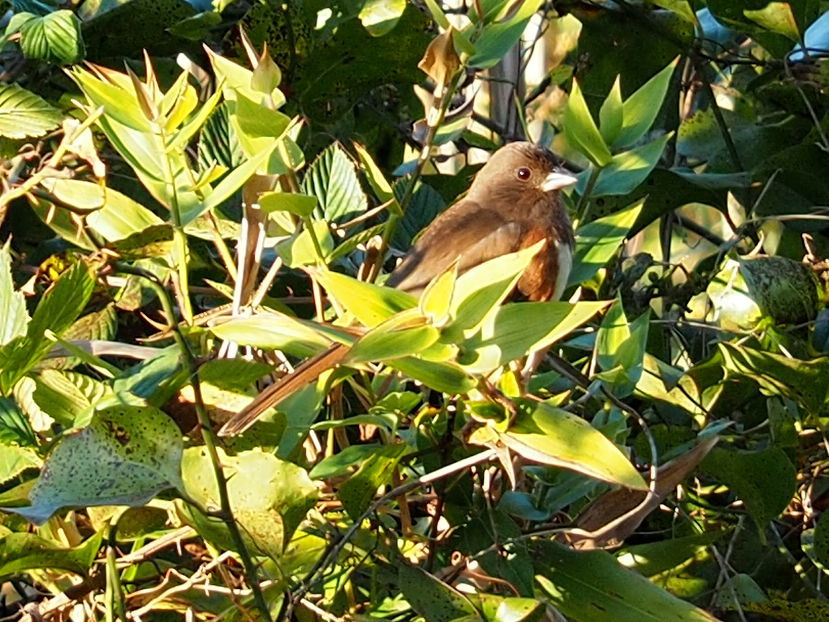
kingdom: Animalia
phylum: Chordata
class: Aves
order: Passeriformes
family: Passerellidae
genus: Pipilo
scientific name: Pipilo erythrophthalmus
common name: Eastern towhee
